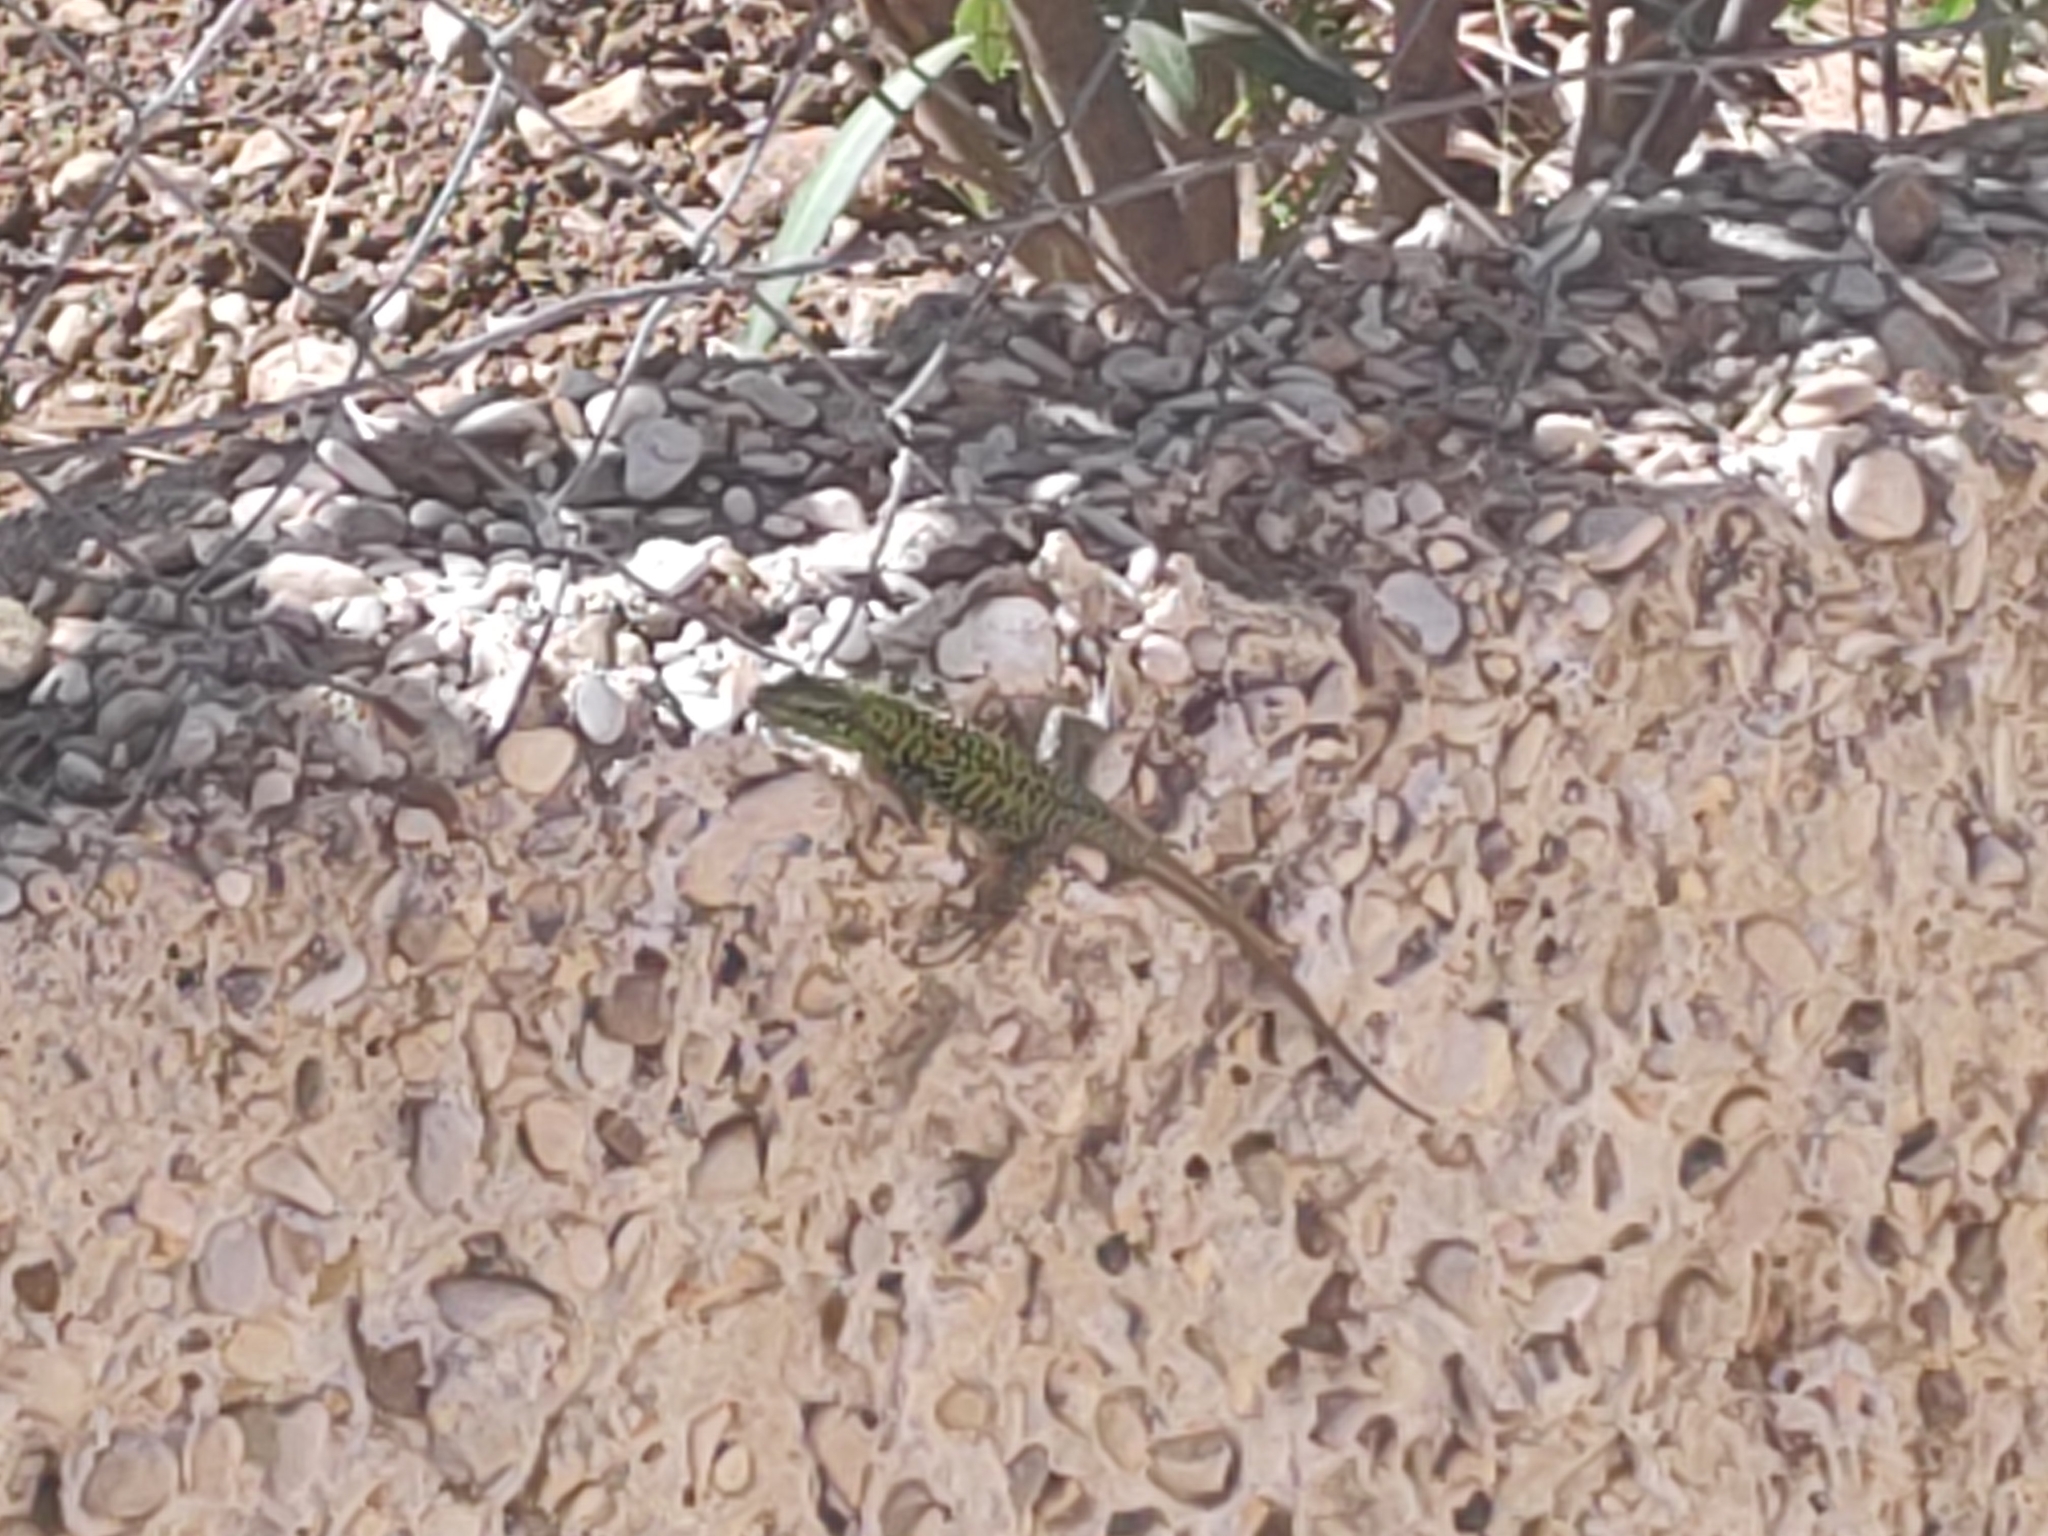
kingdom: Animalia
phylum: Chordata
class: Squamata
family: Lacertidae
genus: Podarcis
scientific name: Podarcis siculus
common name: Italian wall lizard
